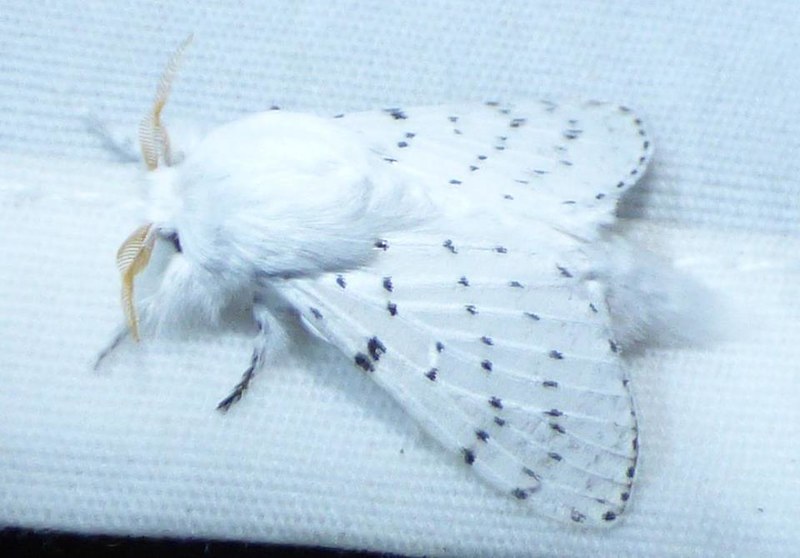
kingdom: Animalia
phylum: Arthropoda
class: Insecta
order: Lepidoptera
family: Lasiocampidae
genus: Artace
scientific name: Artace cribrarius
